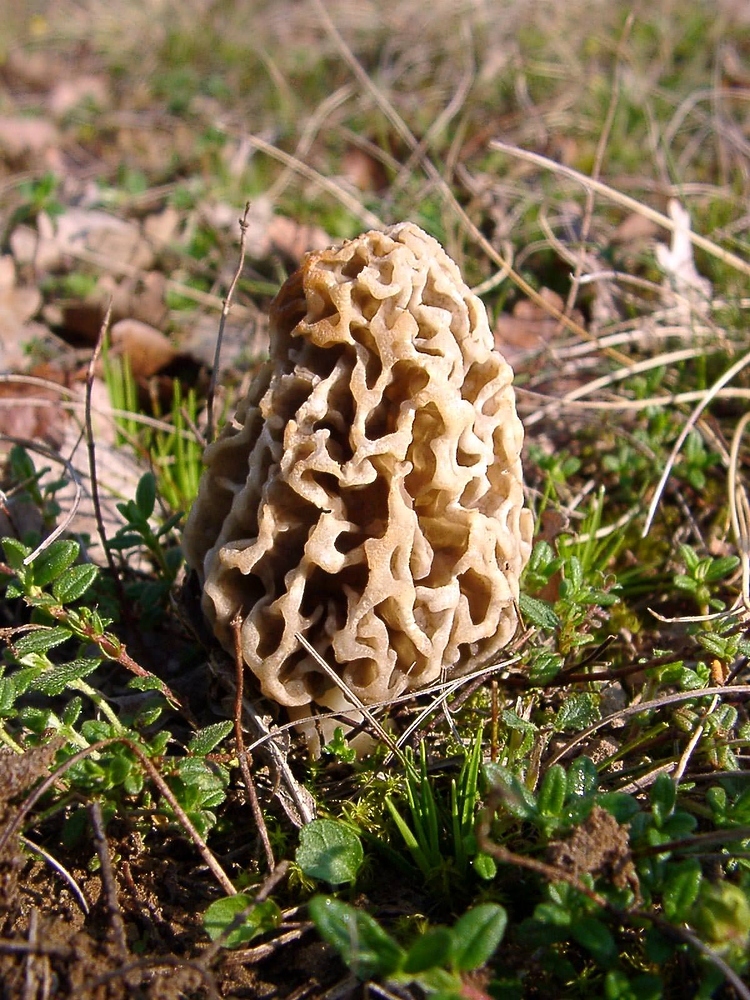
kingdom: Fungi
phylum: Ascomycota
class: Pezizomycetes
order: Pezizales
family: Morchellaceae
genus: Morchella
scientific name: Morchella esculenta
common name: Morel
